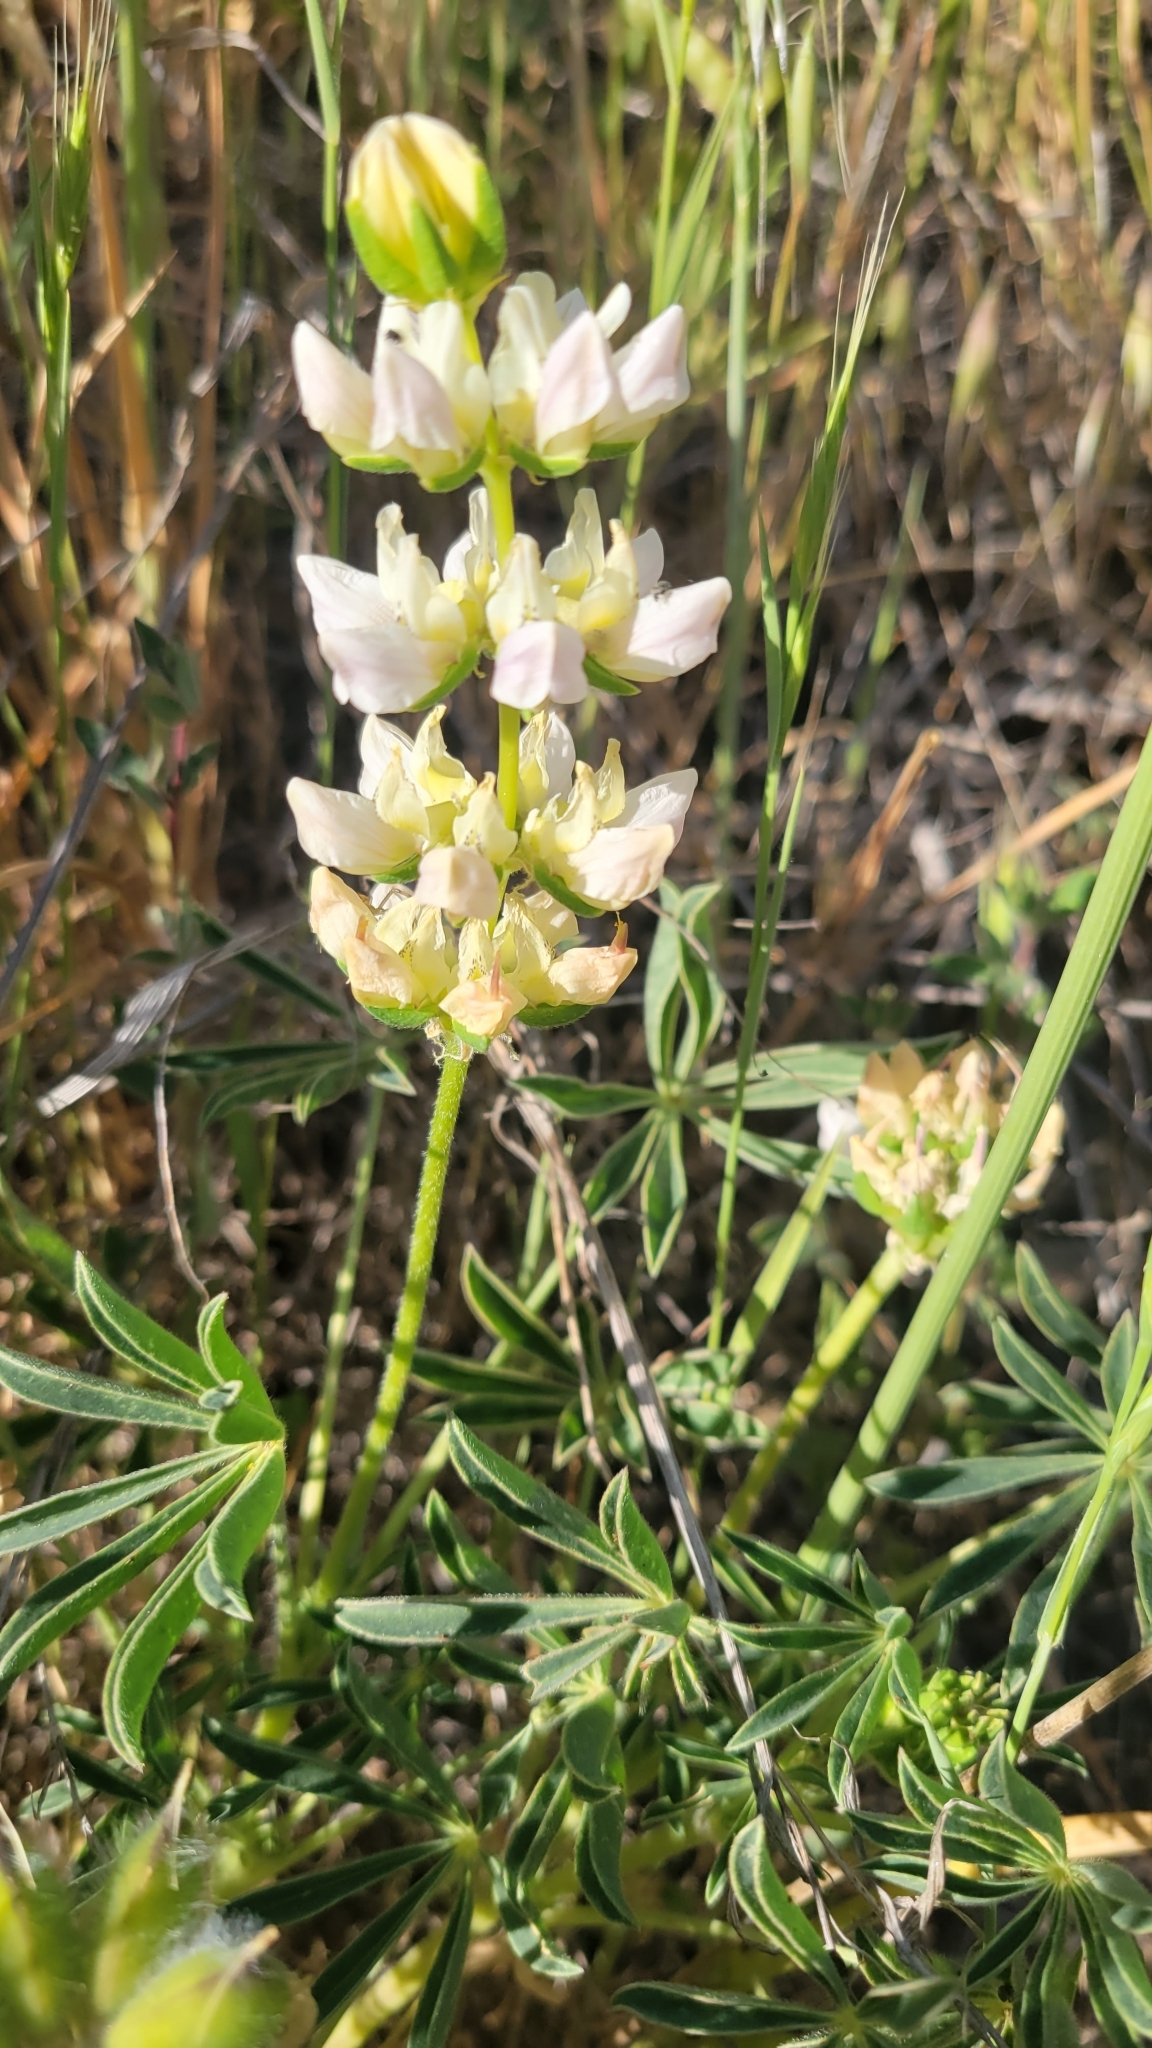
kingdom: Plantae
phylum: Tracheophyta
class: Magnoliopsida
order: Fabales
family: Fabaceae
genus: Lupinus
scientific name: Lupinus microcarpus
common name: Chick lupine
